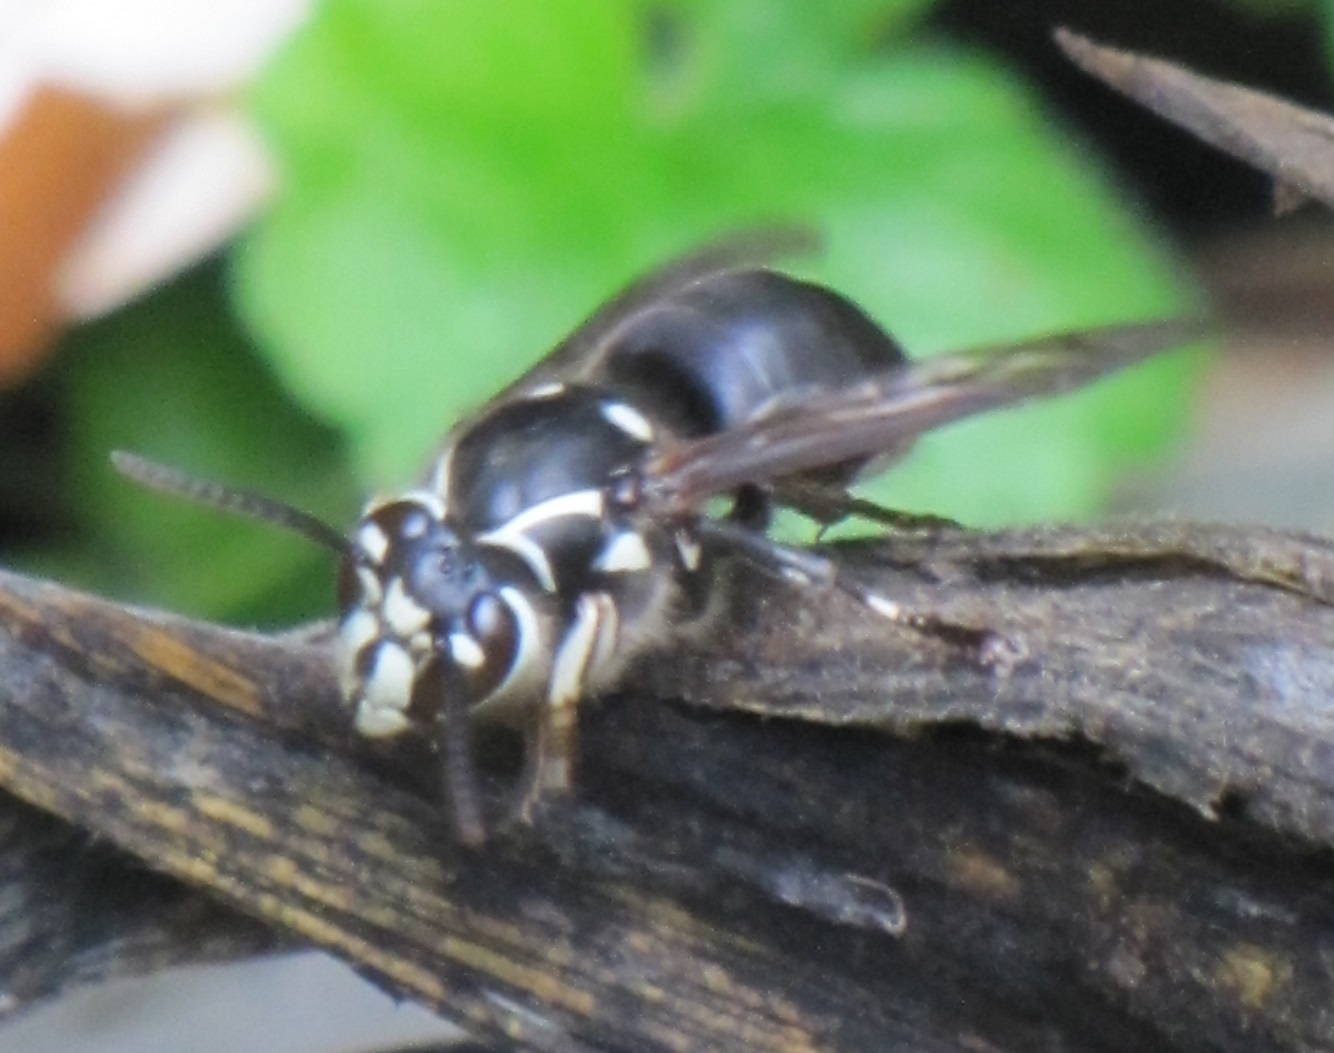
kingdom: Animalia
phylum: Arthropoda
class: Insecta
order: Hymenoptera
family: Vespidae
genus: Dolichovespula
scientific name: Dolichovespula maculata
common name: Bald-faced hornet
